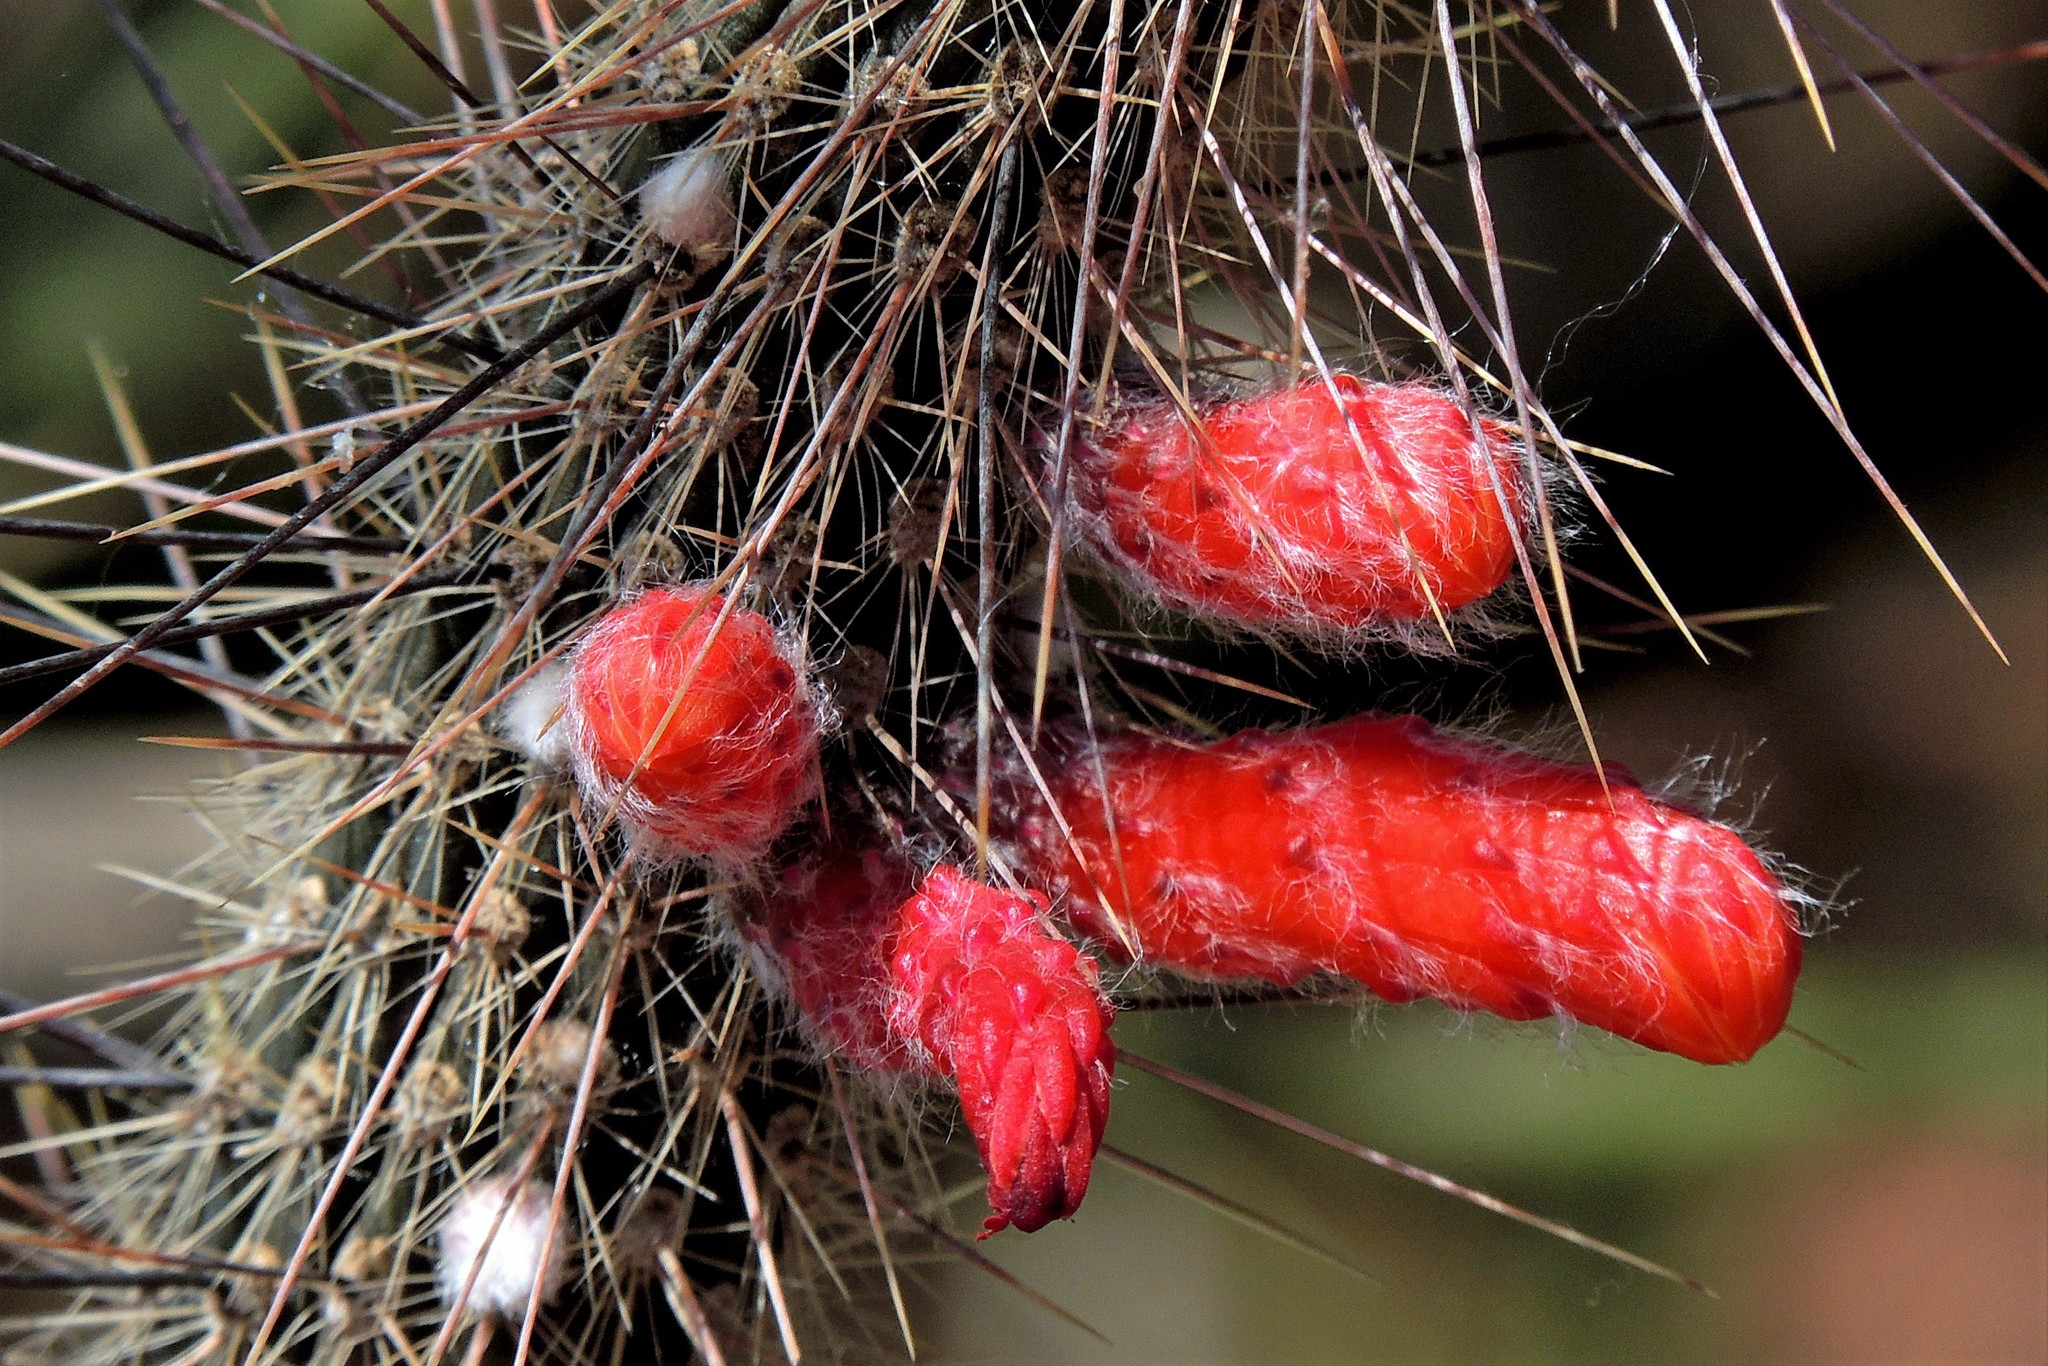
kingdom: Plantae
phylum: Tracheophyta
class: Magnoliopsida
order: Caryophyllales
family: Cactaceae
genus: Cleistocactus
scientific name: Cleistocactus baumannii
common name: Scarlet-bugler
